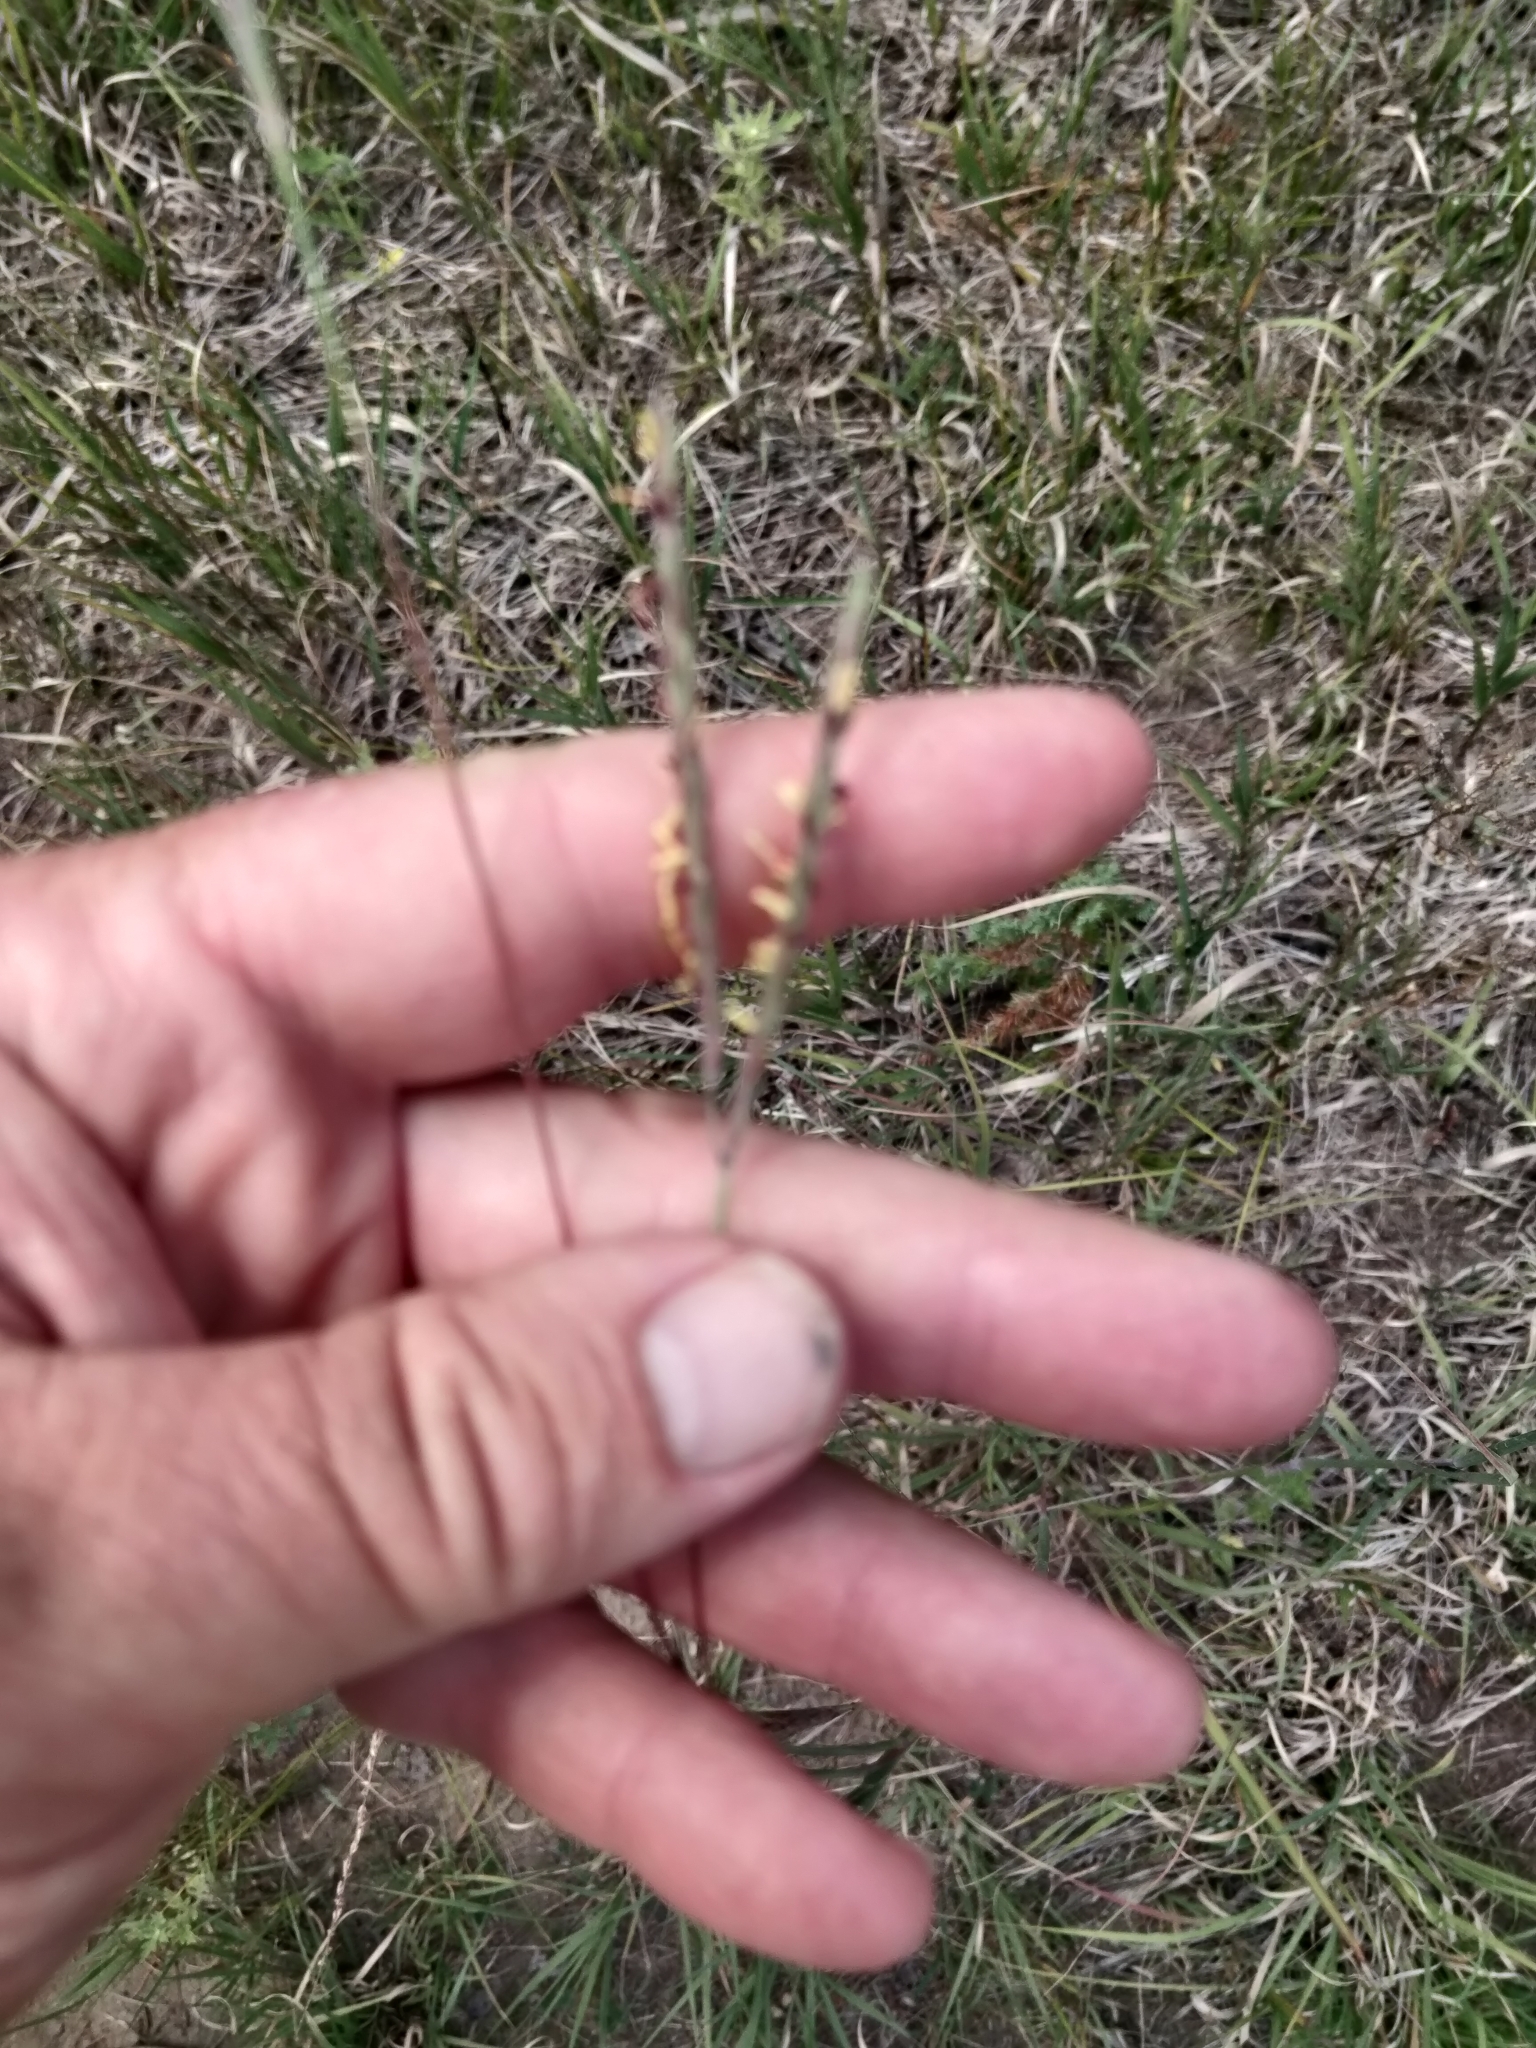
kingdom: Plantae
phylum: Tracheophyta
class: Liliopsida
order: Poales
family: Poaceae
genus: Andropogon
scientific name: Andropogon gerardi
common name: Big bluestem
